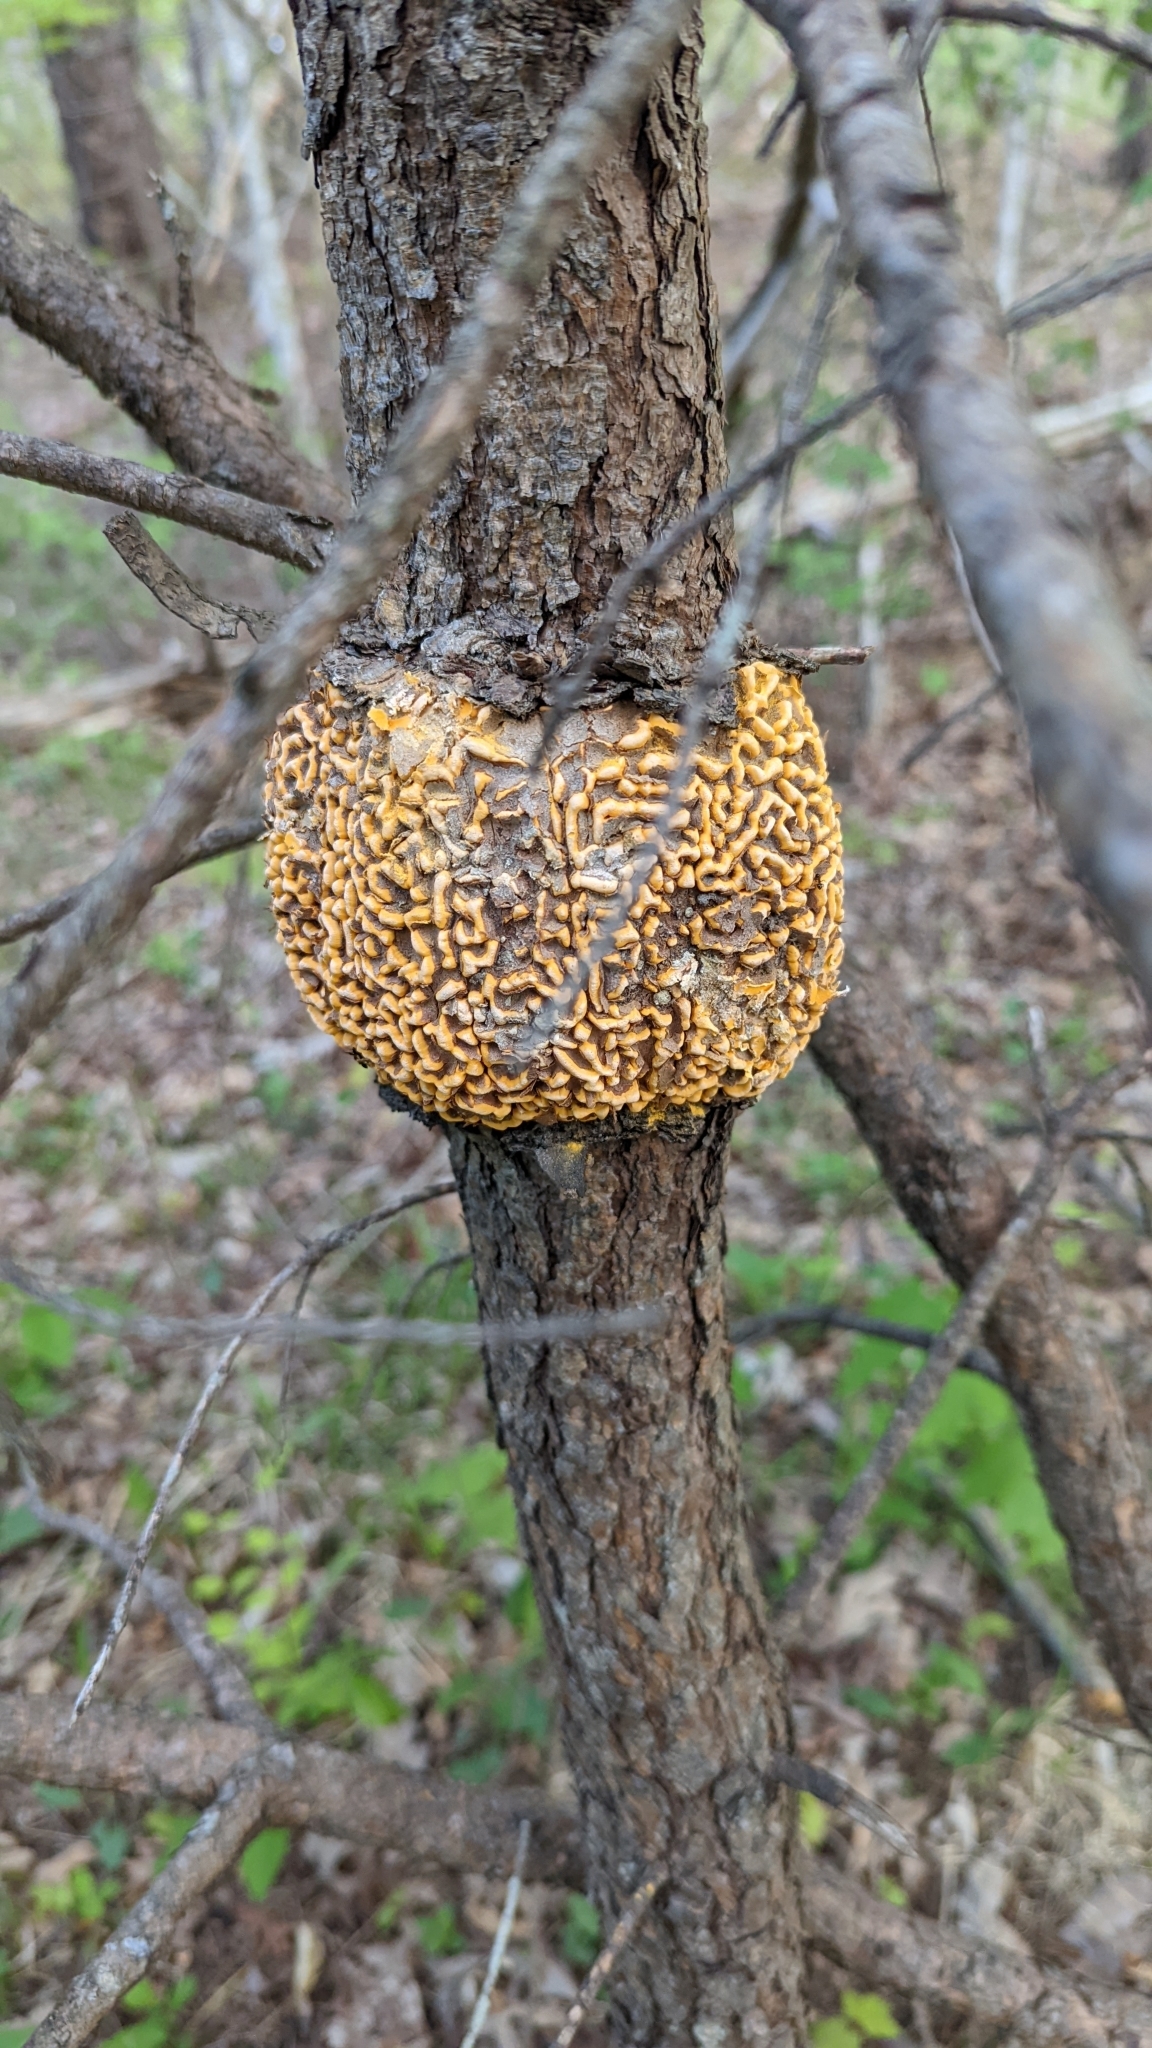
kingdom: Fungi
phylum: Basidiomycota
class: Pucciniomycetes
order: Pucciniales
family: Cronartiaceae
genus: Cronartium
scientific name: Cronartium quercuum
